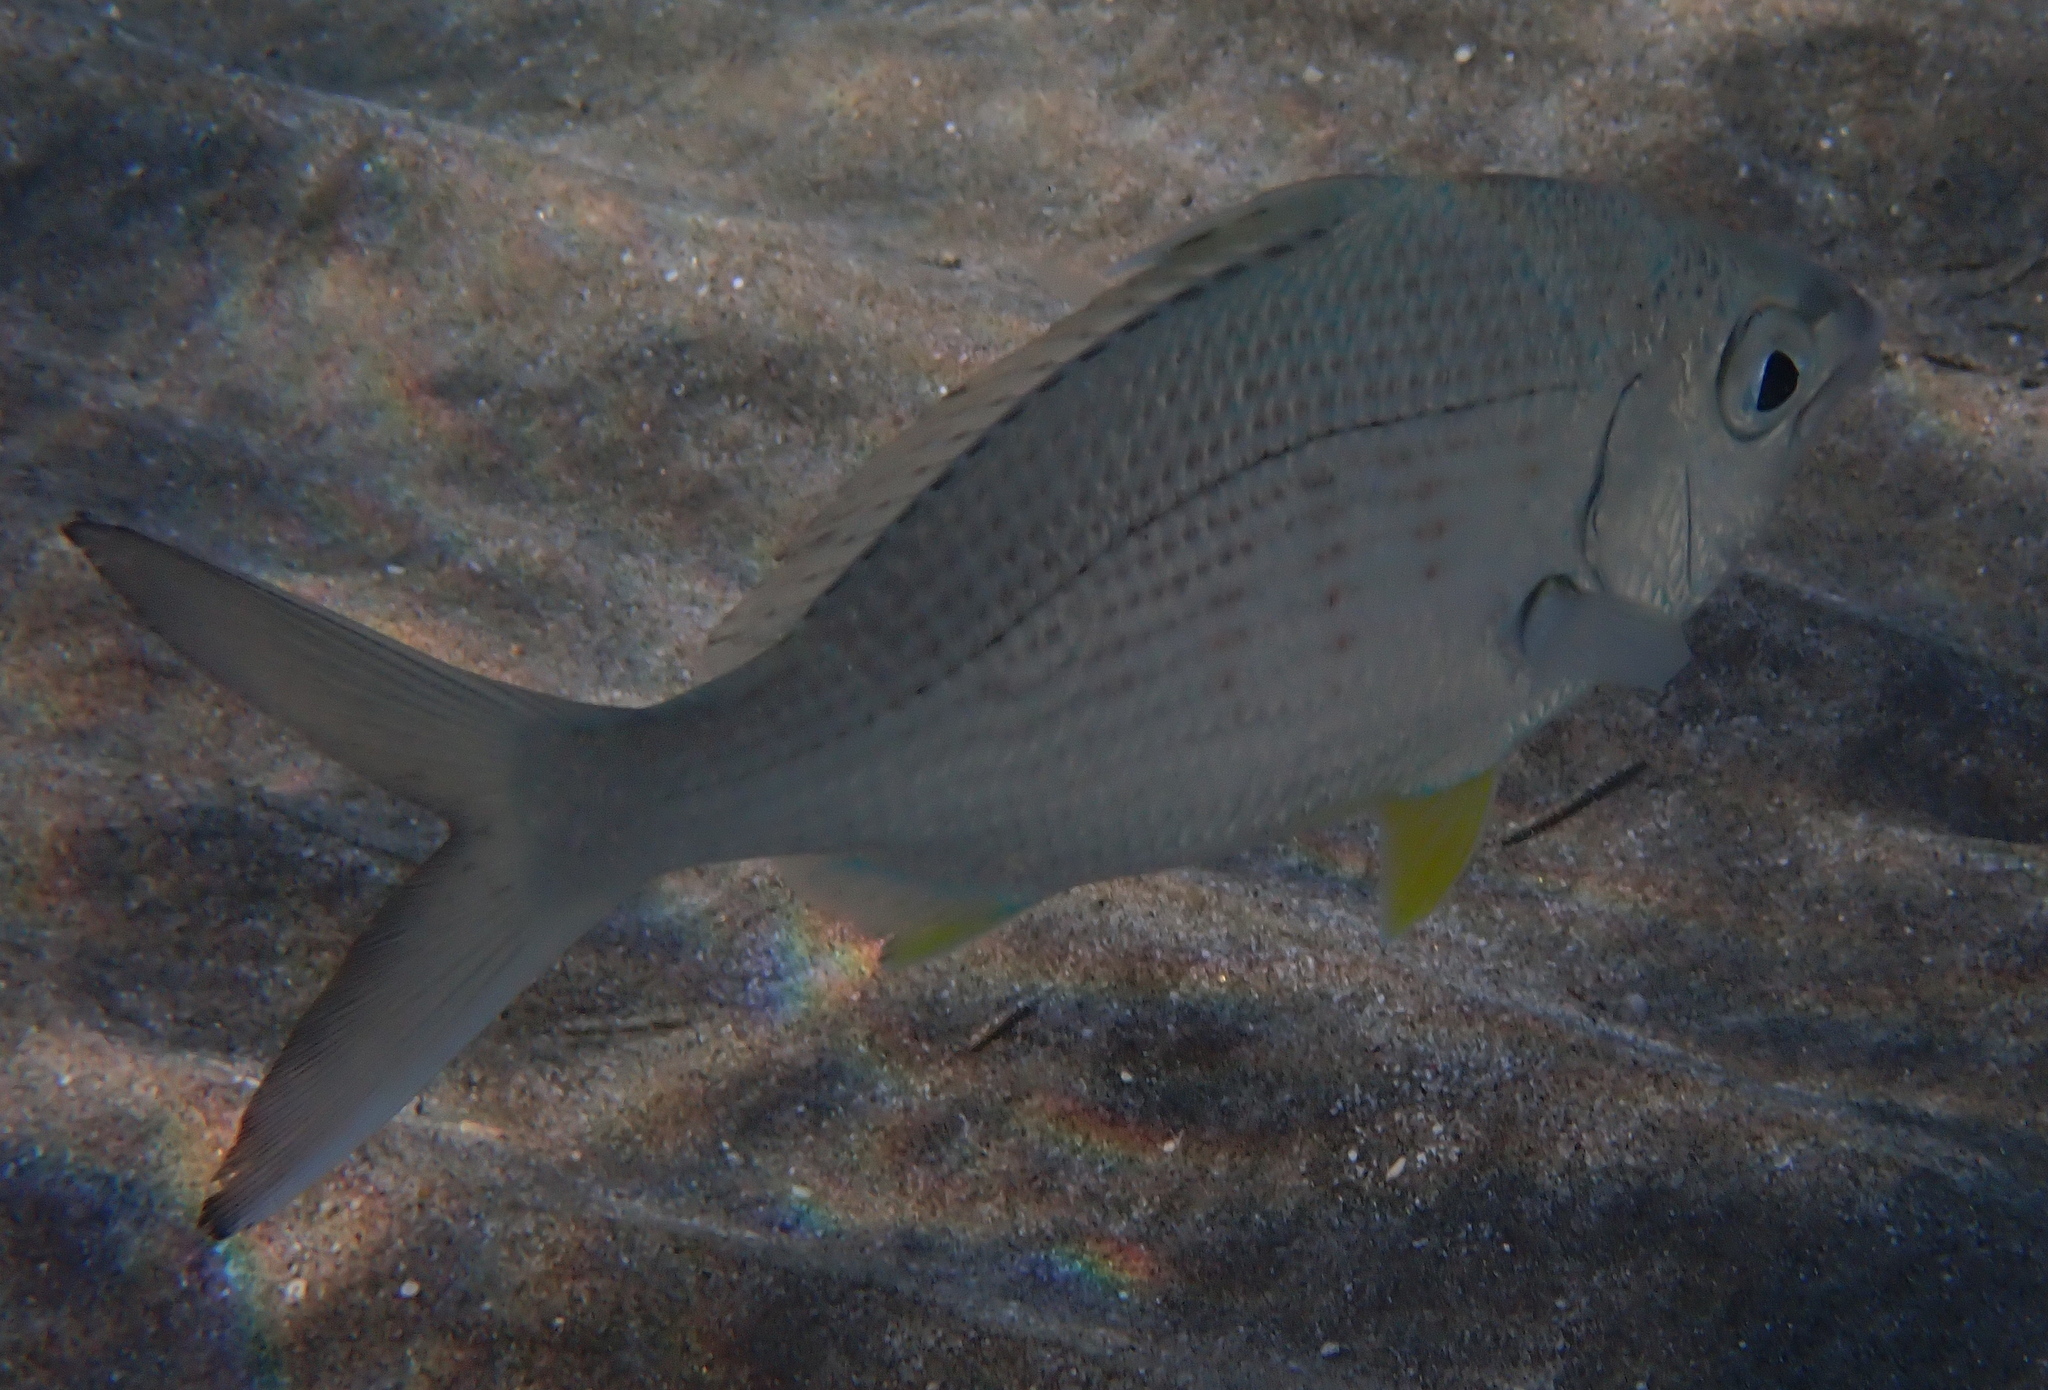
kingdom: Animalia
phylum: Chordata
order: Perciformes
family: Gerreidae
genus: Gerres
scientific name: Gerres longirostris
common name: Strongspine silver-biddy
